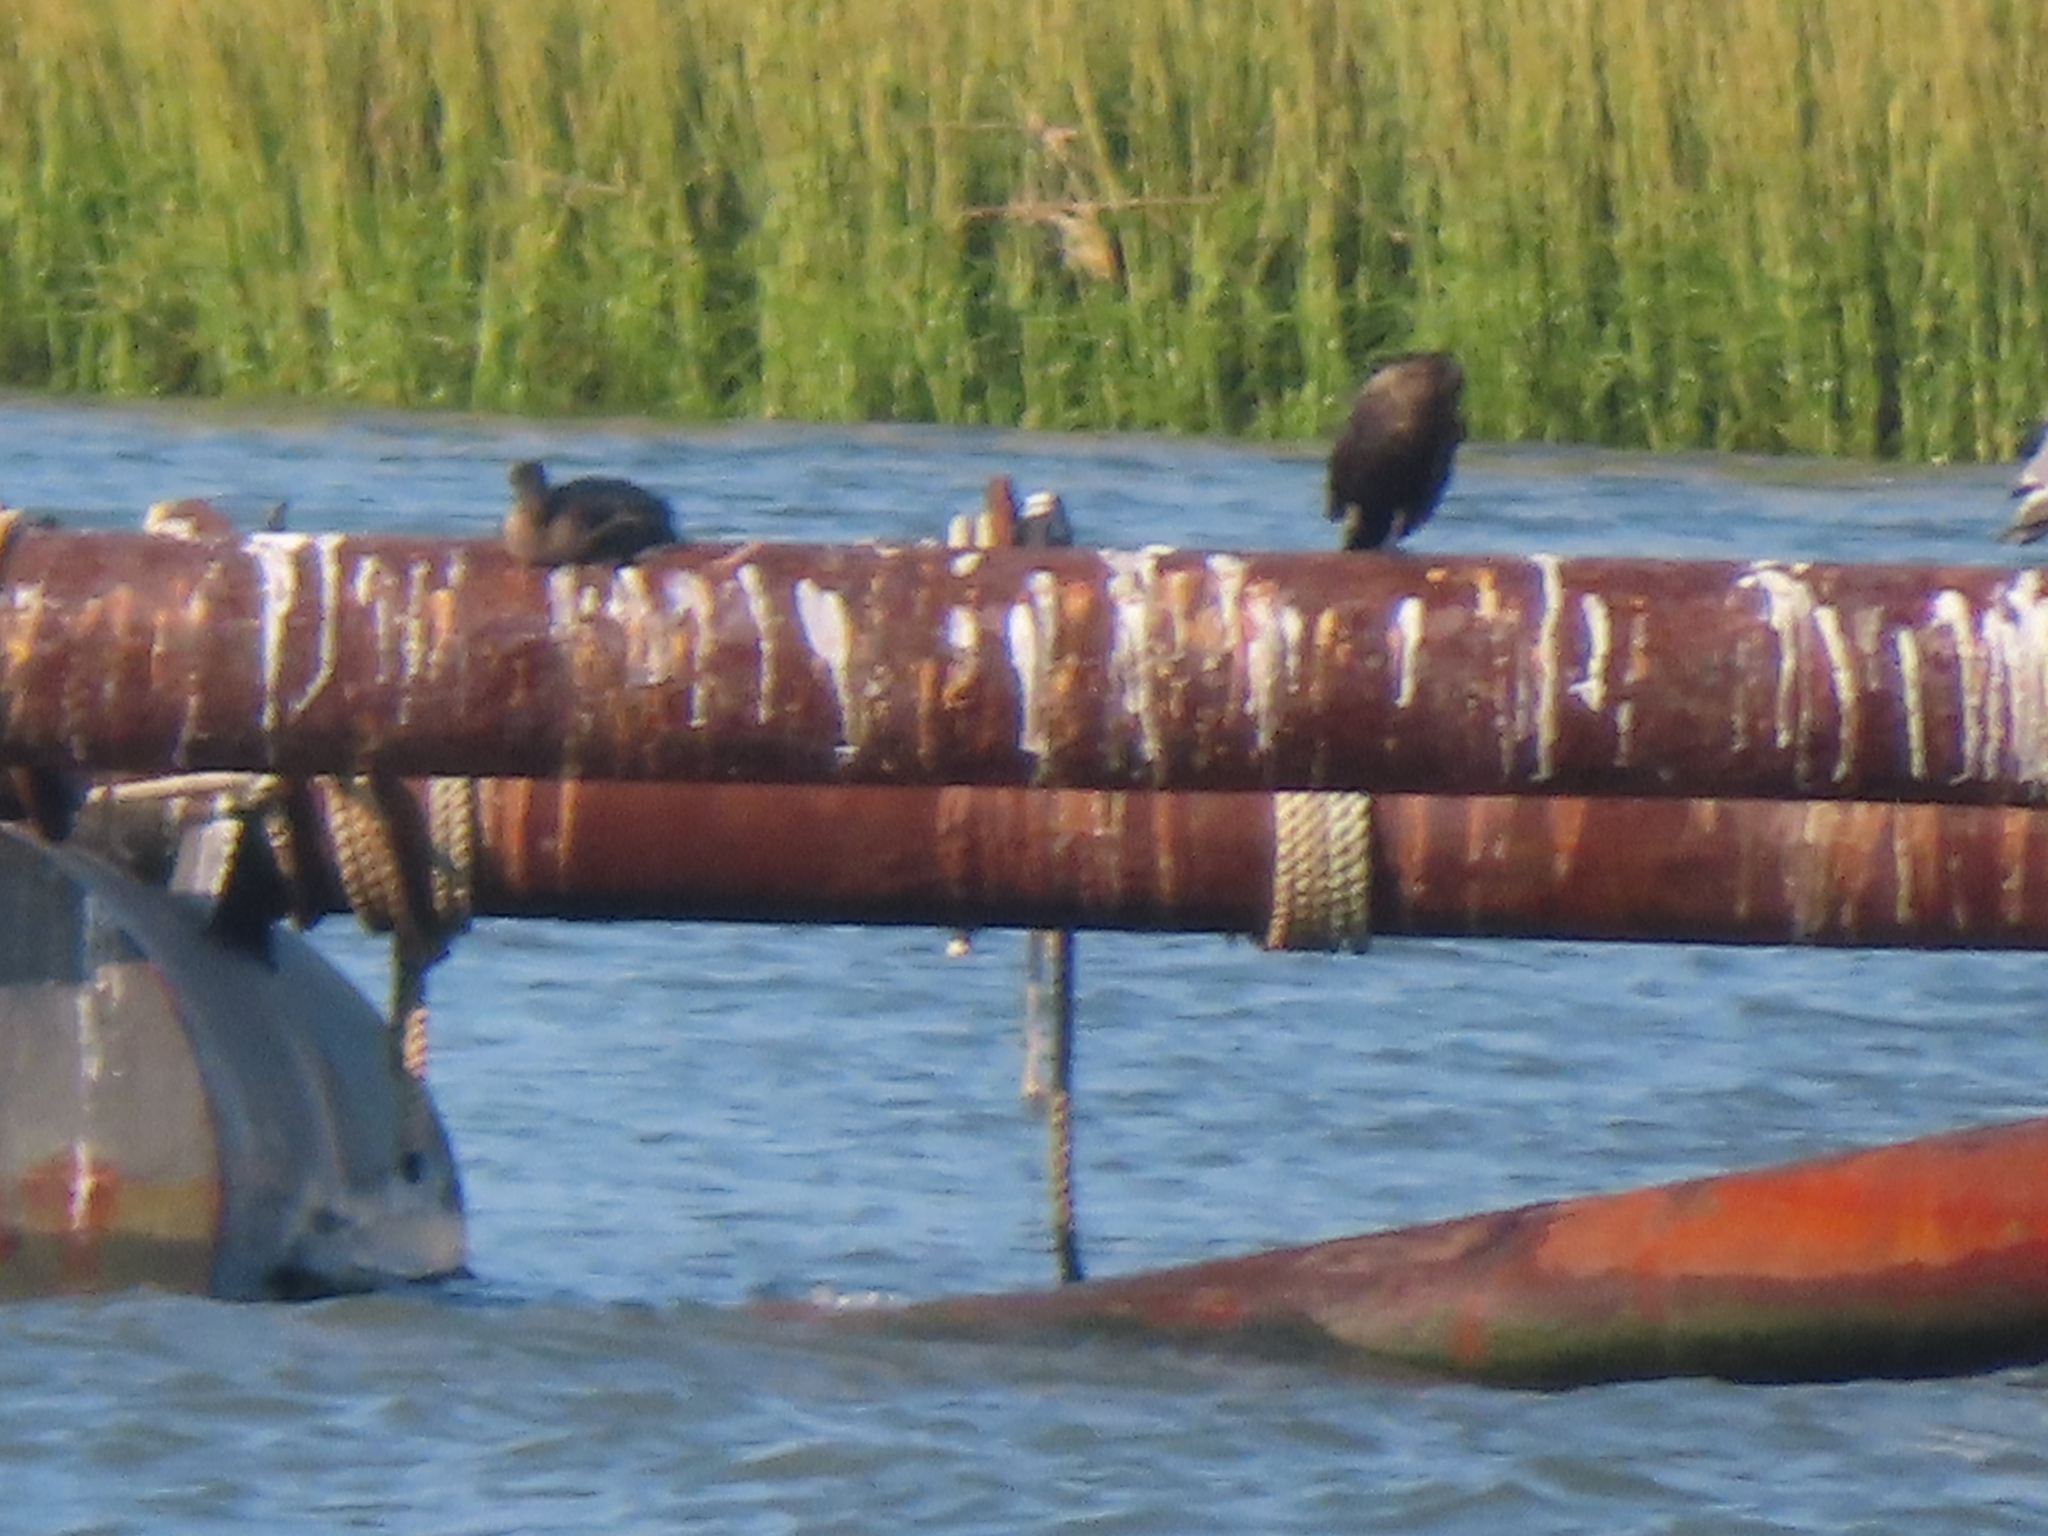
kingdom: Animalia
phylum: Chordata
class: Aves
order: Suliformes
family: Phalacrocoracidae
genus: Phalacrocorax
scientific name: Phalacrocorax auritus
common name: Double-crested cormorant
